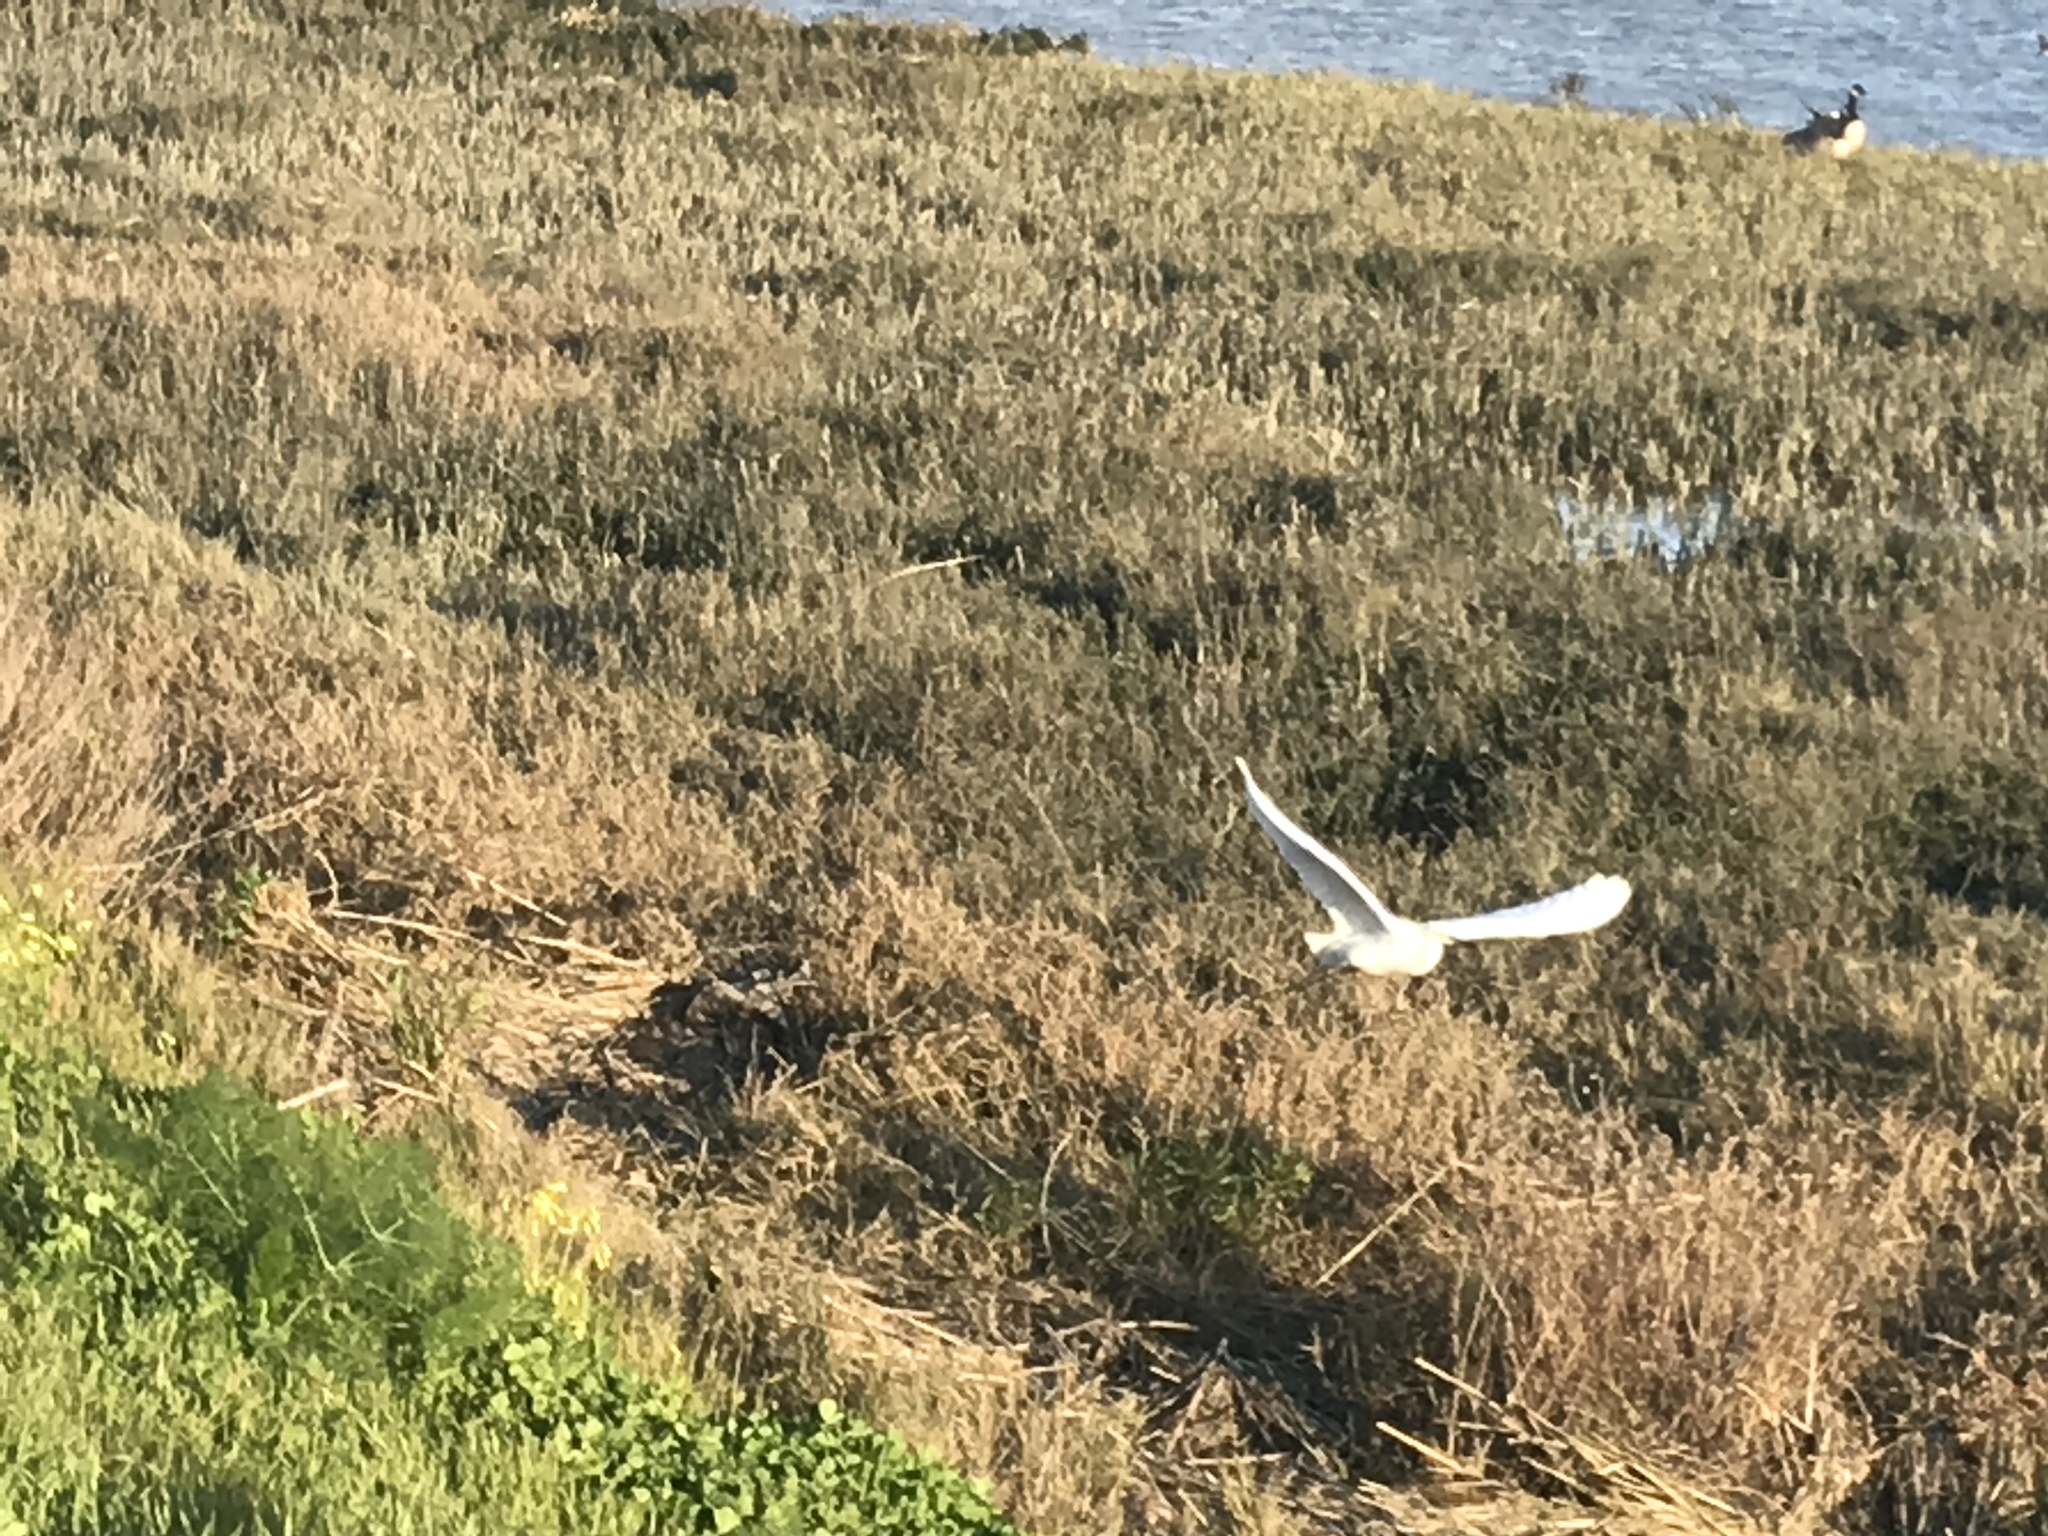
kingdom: Animalia
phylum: Chordata
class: Aves
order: Pelecaniformes
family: Ardeidae
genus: Egretta
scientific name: Egretta thula
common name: Snowy egret
